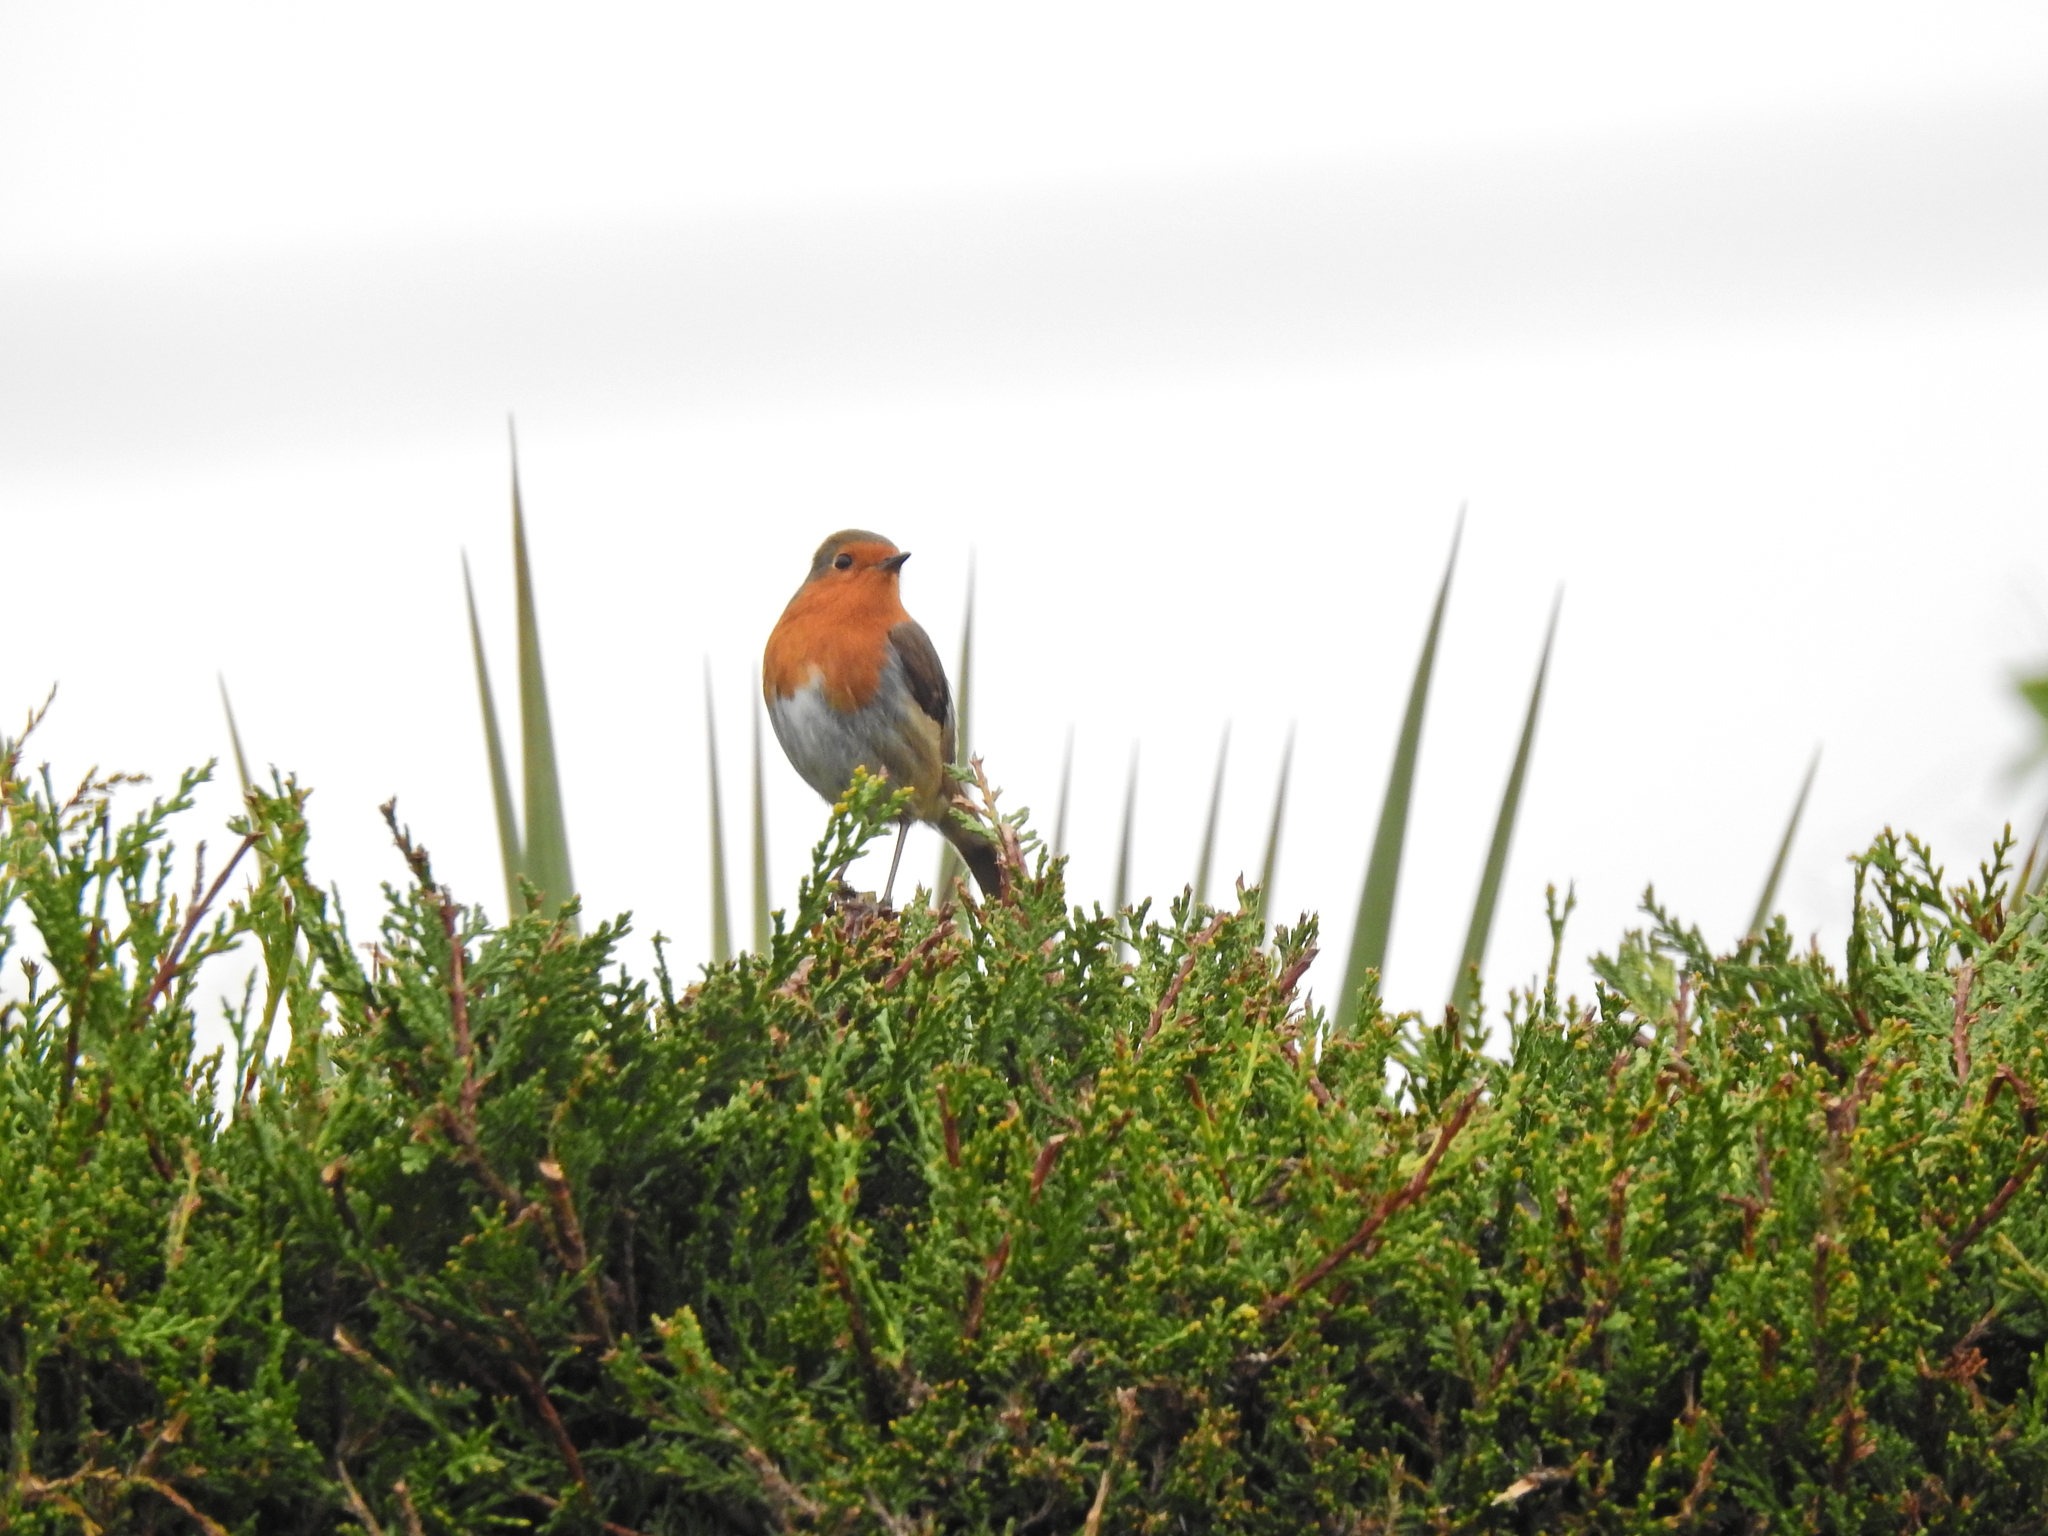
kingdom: Animalia
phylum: Chordata
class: Aves
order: Passeriformes
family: Muscicapidae
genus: Erithacus
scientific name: Erithacus rubecula
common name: European robin
